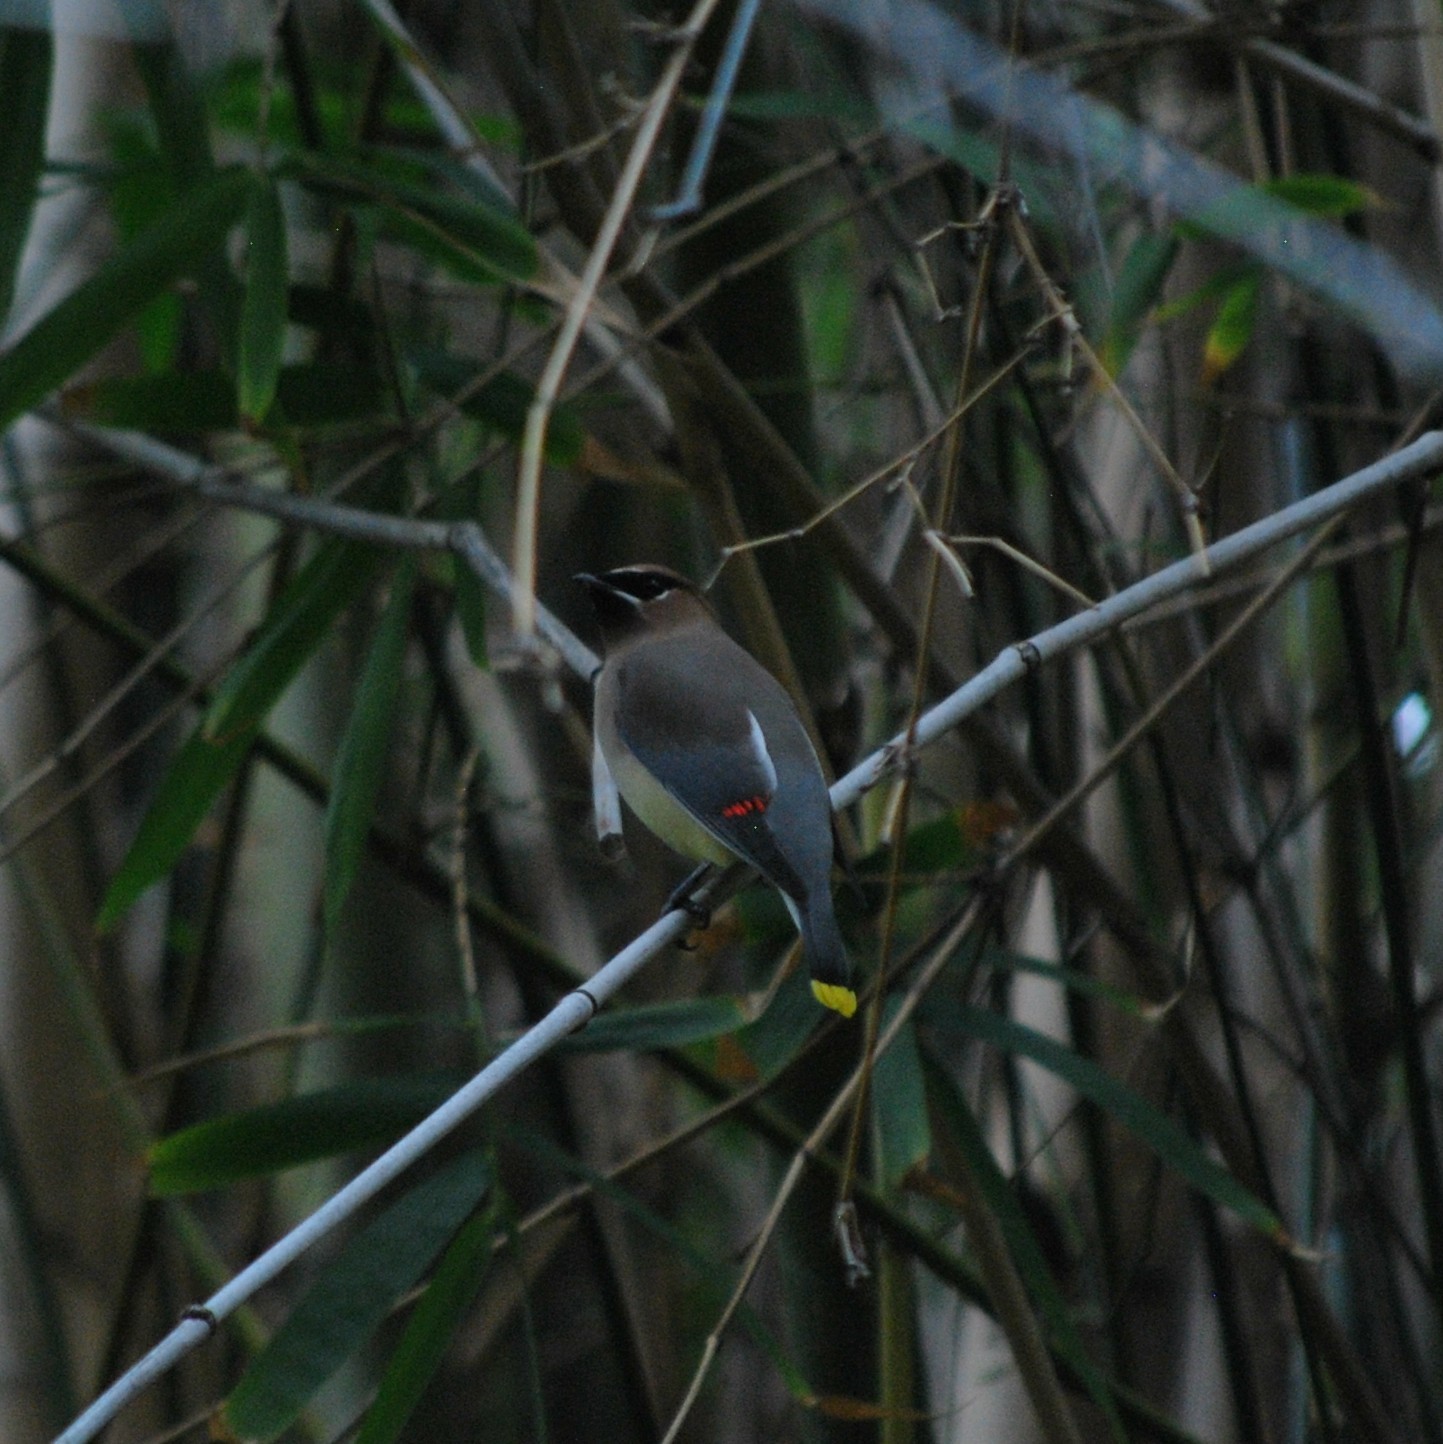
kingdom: Animalia
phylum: Chordata
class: Aves
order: Passeriformes
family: Bombycillidae
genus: Bombycilla
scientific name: Bombycilla cedrorum
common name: Cedar waxwing
